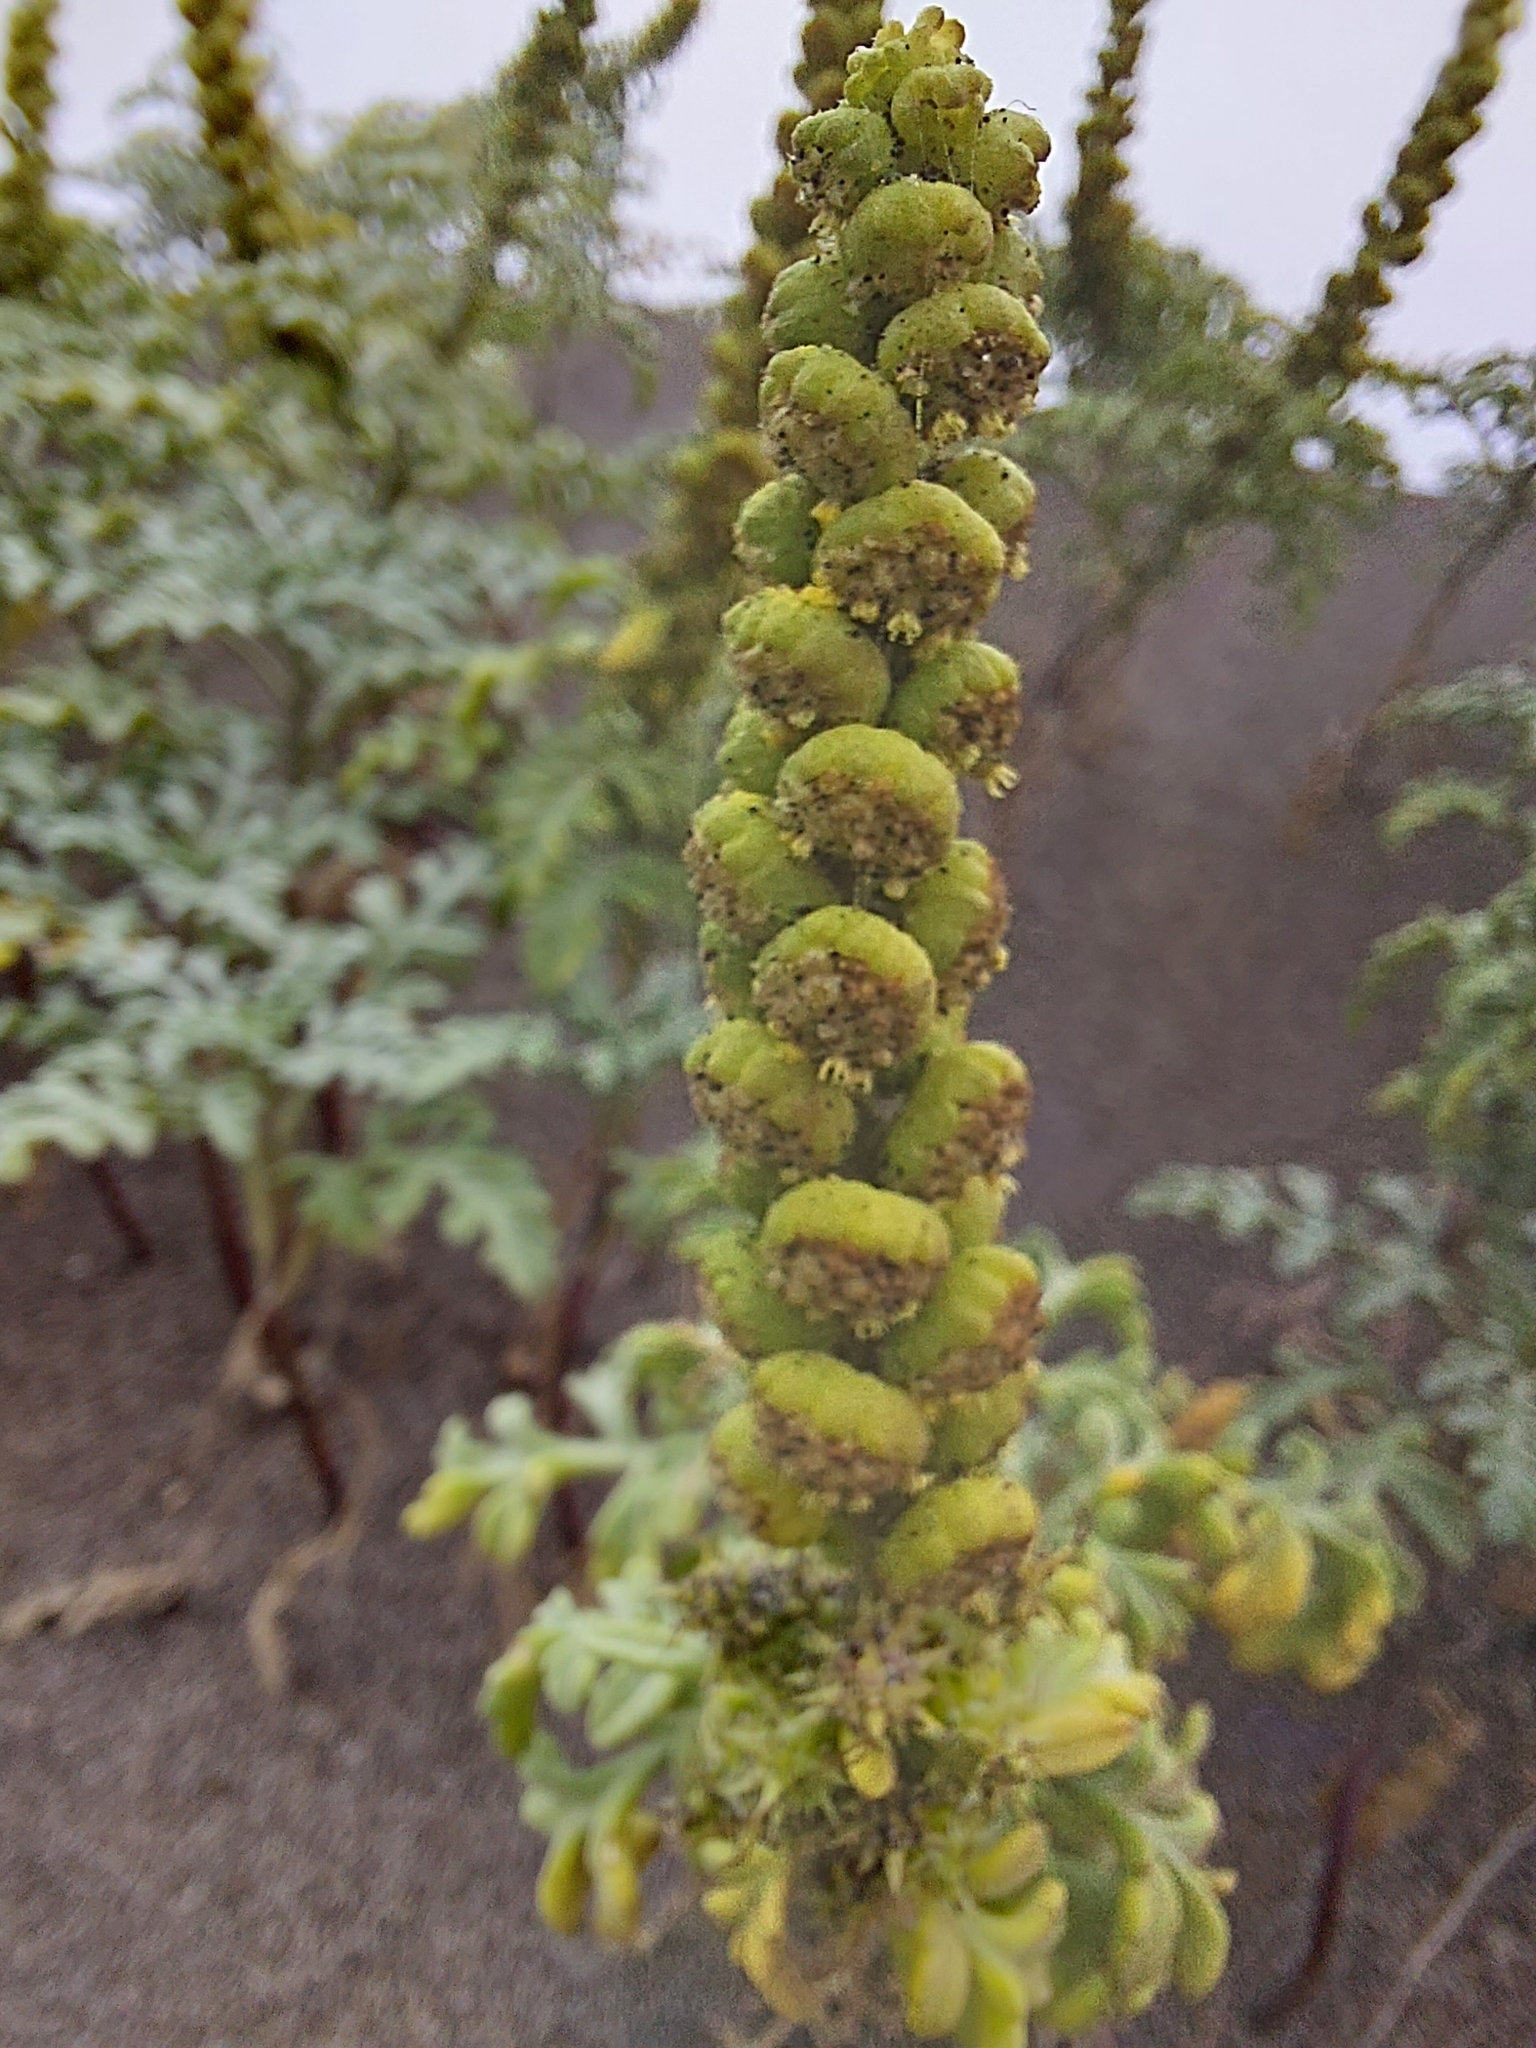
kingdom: Plantae
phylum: Tracheophyta
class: Magnoliopsida
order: Asterales
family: Asteraceae
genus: Ambrosia
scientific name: Ambrosia chamissonis
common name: Beachbur
